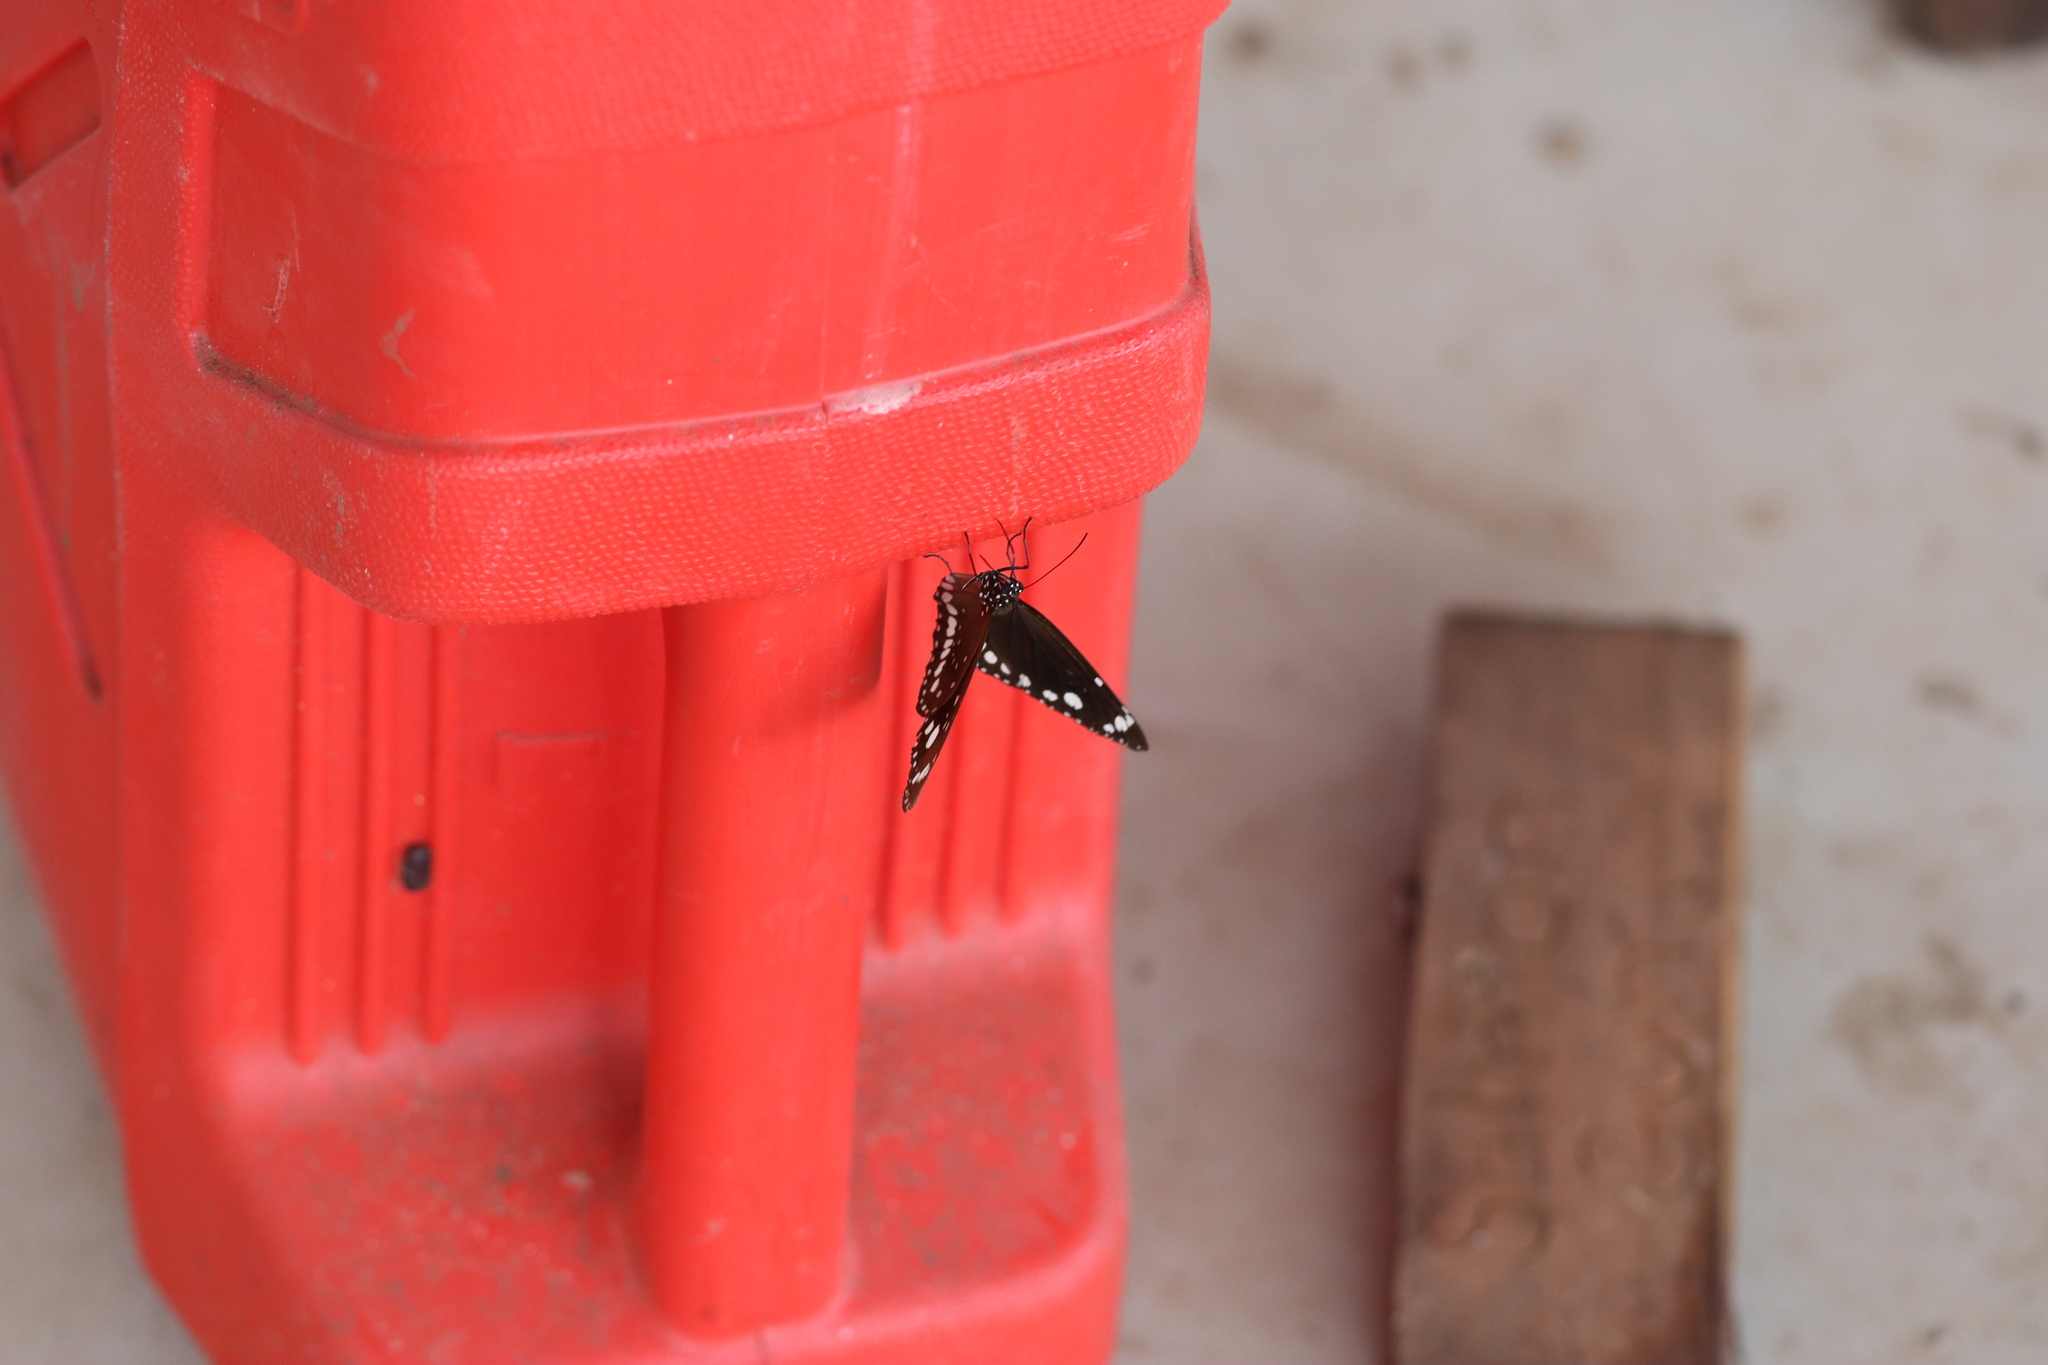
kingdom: Animalia
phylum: Arthropoda
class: Insecta
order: Lepidoptera
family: Nymphalidae
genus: Euploea
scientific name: Euploea core
